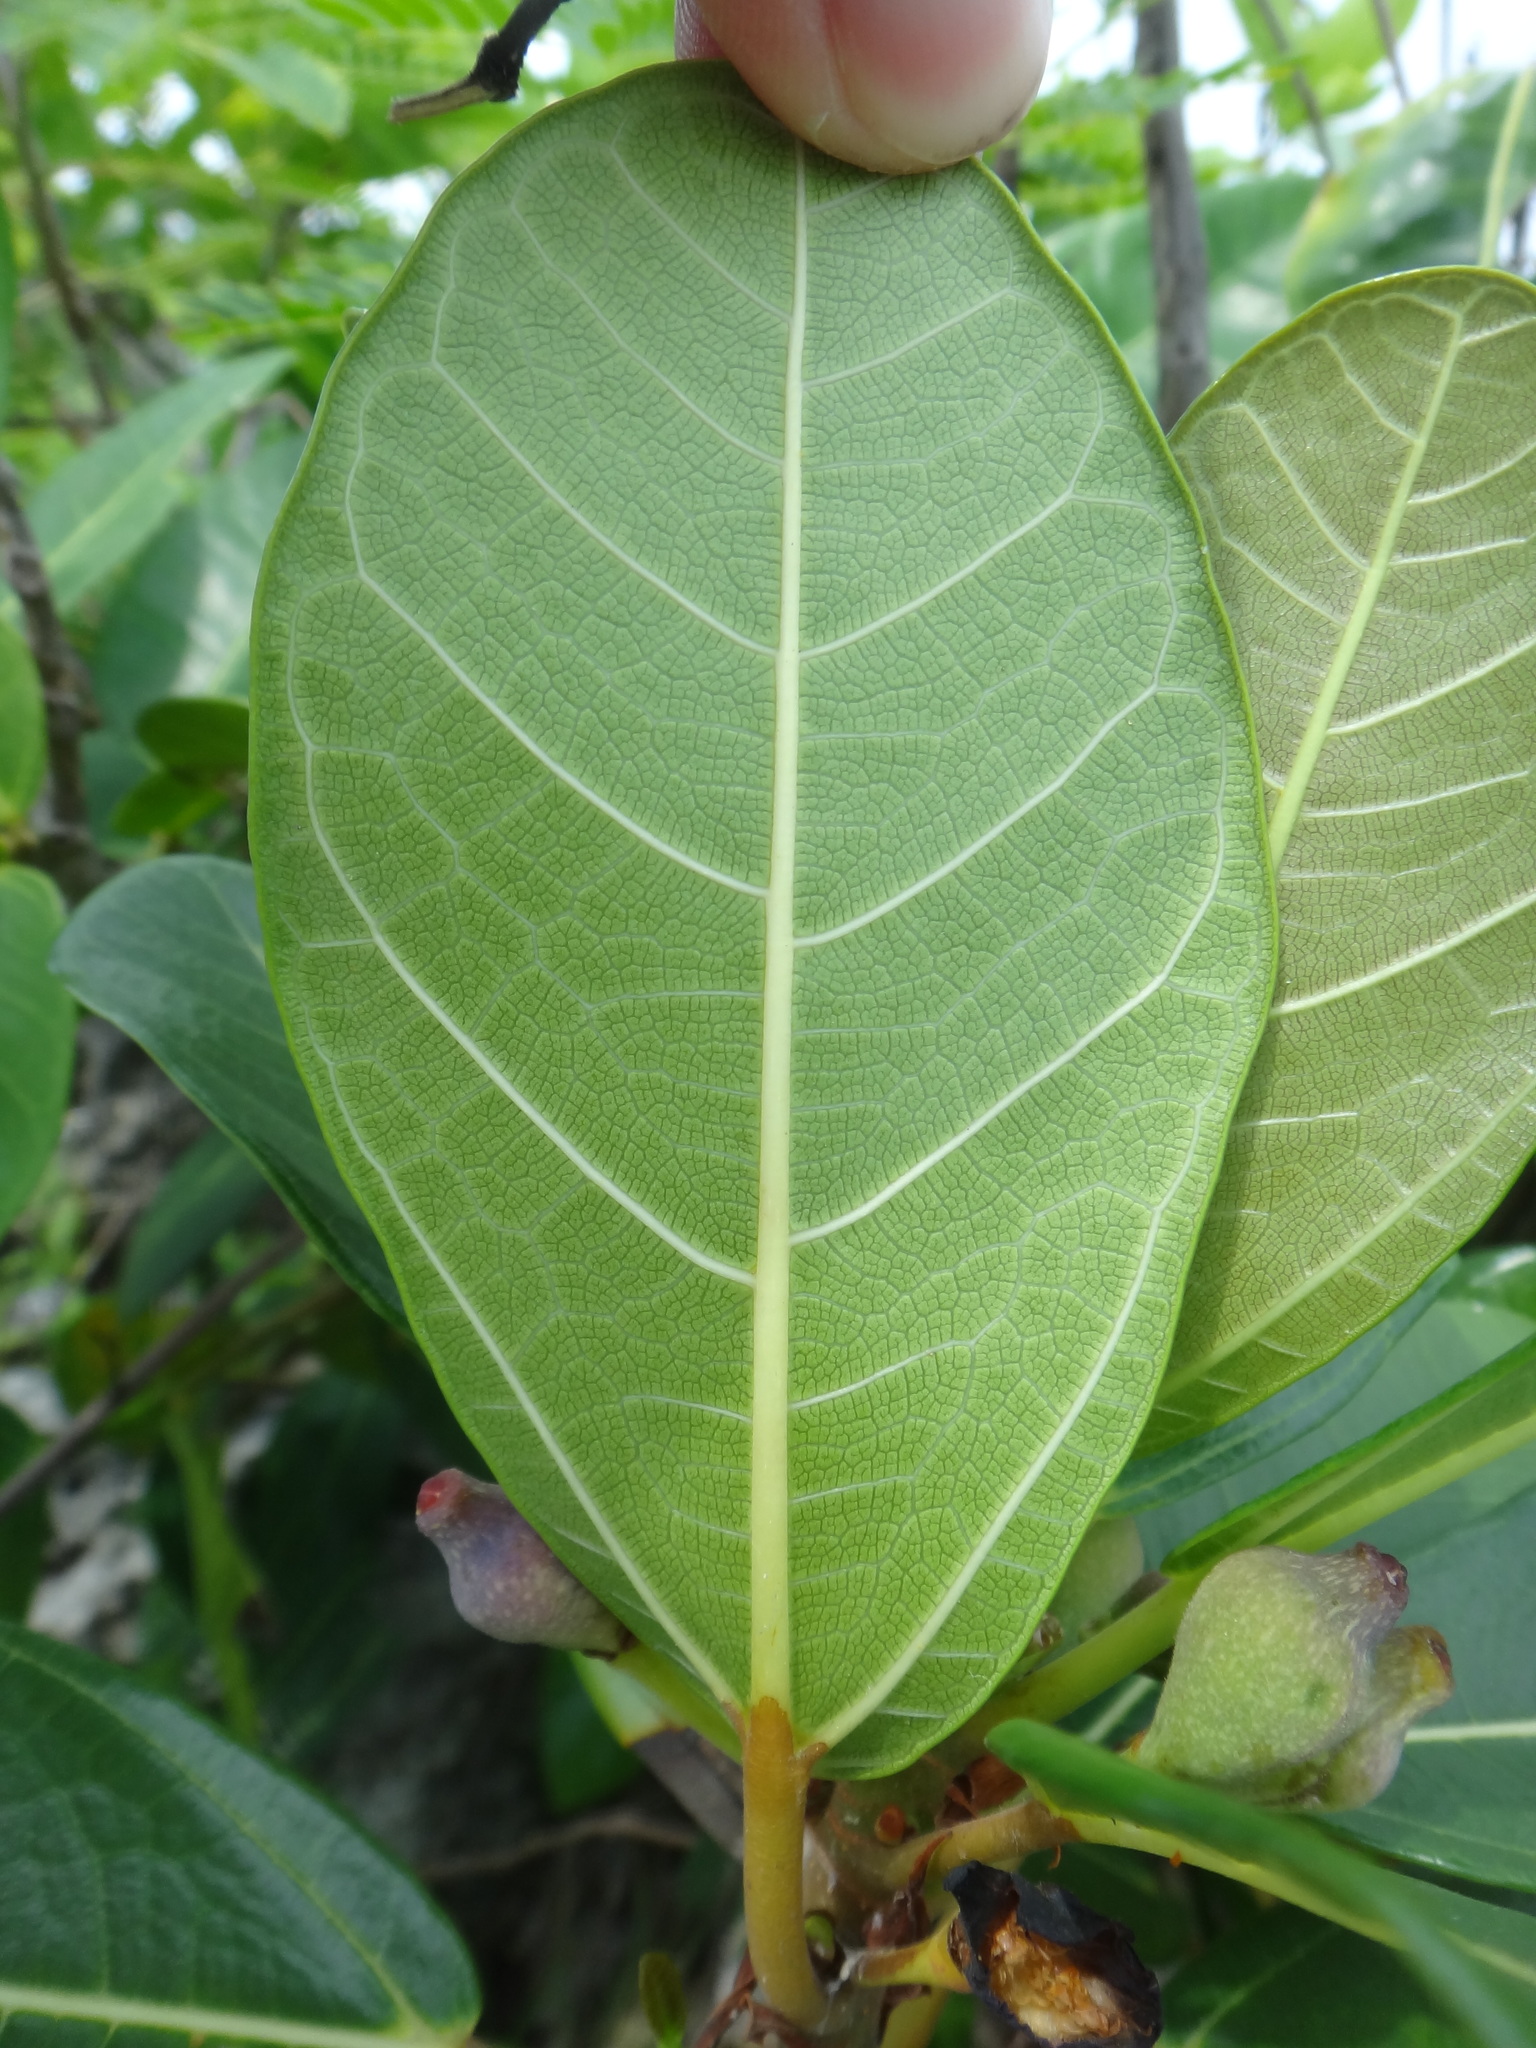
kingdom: Plantae
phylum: Tracheophyta
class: Magnoliopsida
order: Rosales
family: Moraceae
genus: Ficus
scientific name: Ficus pedunculosa
